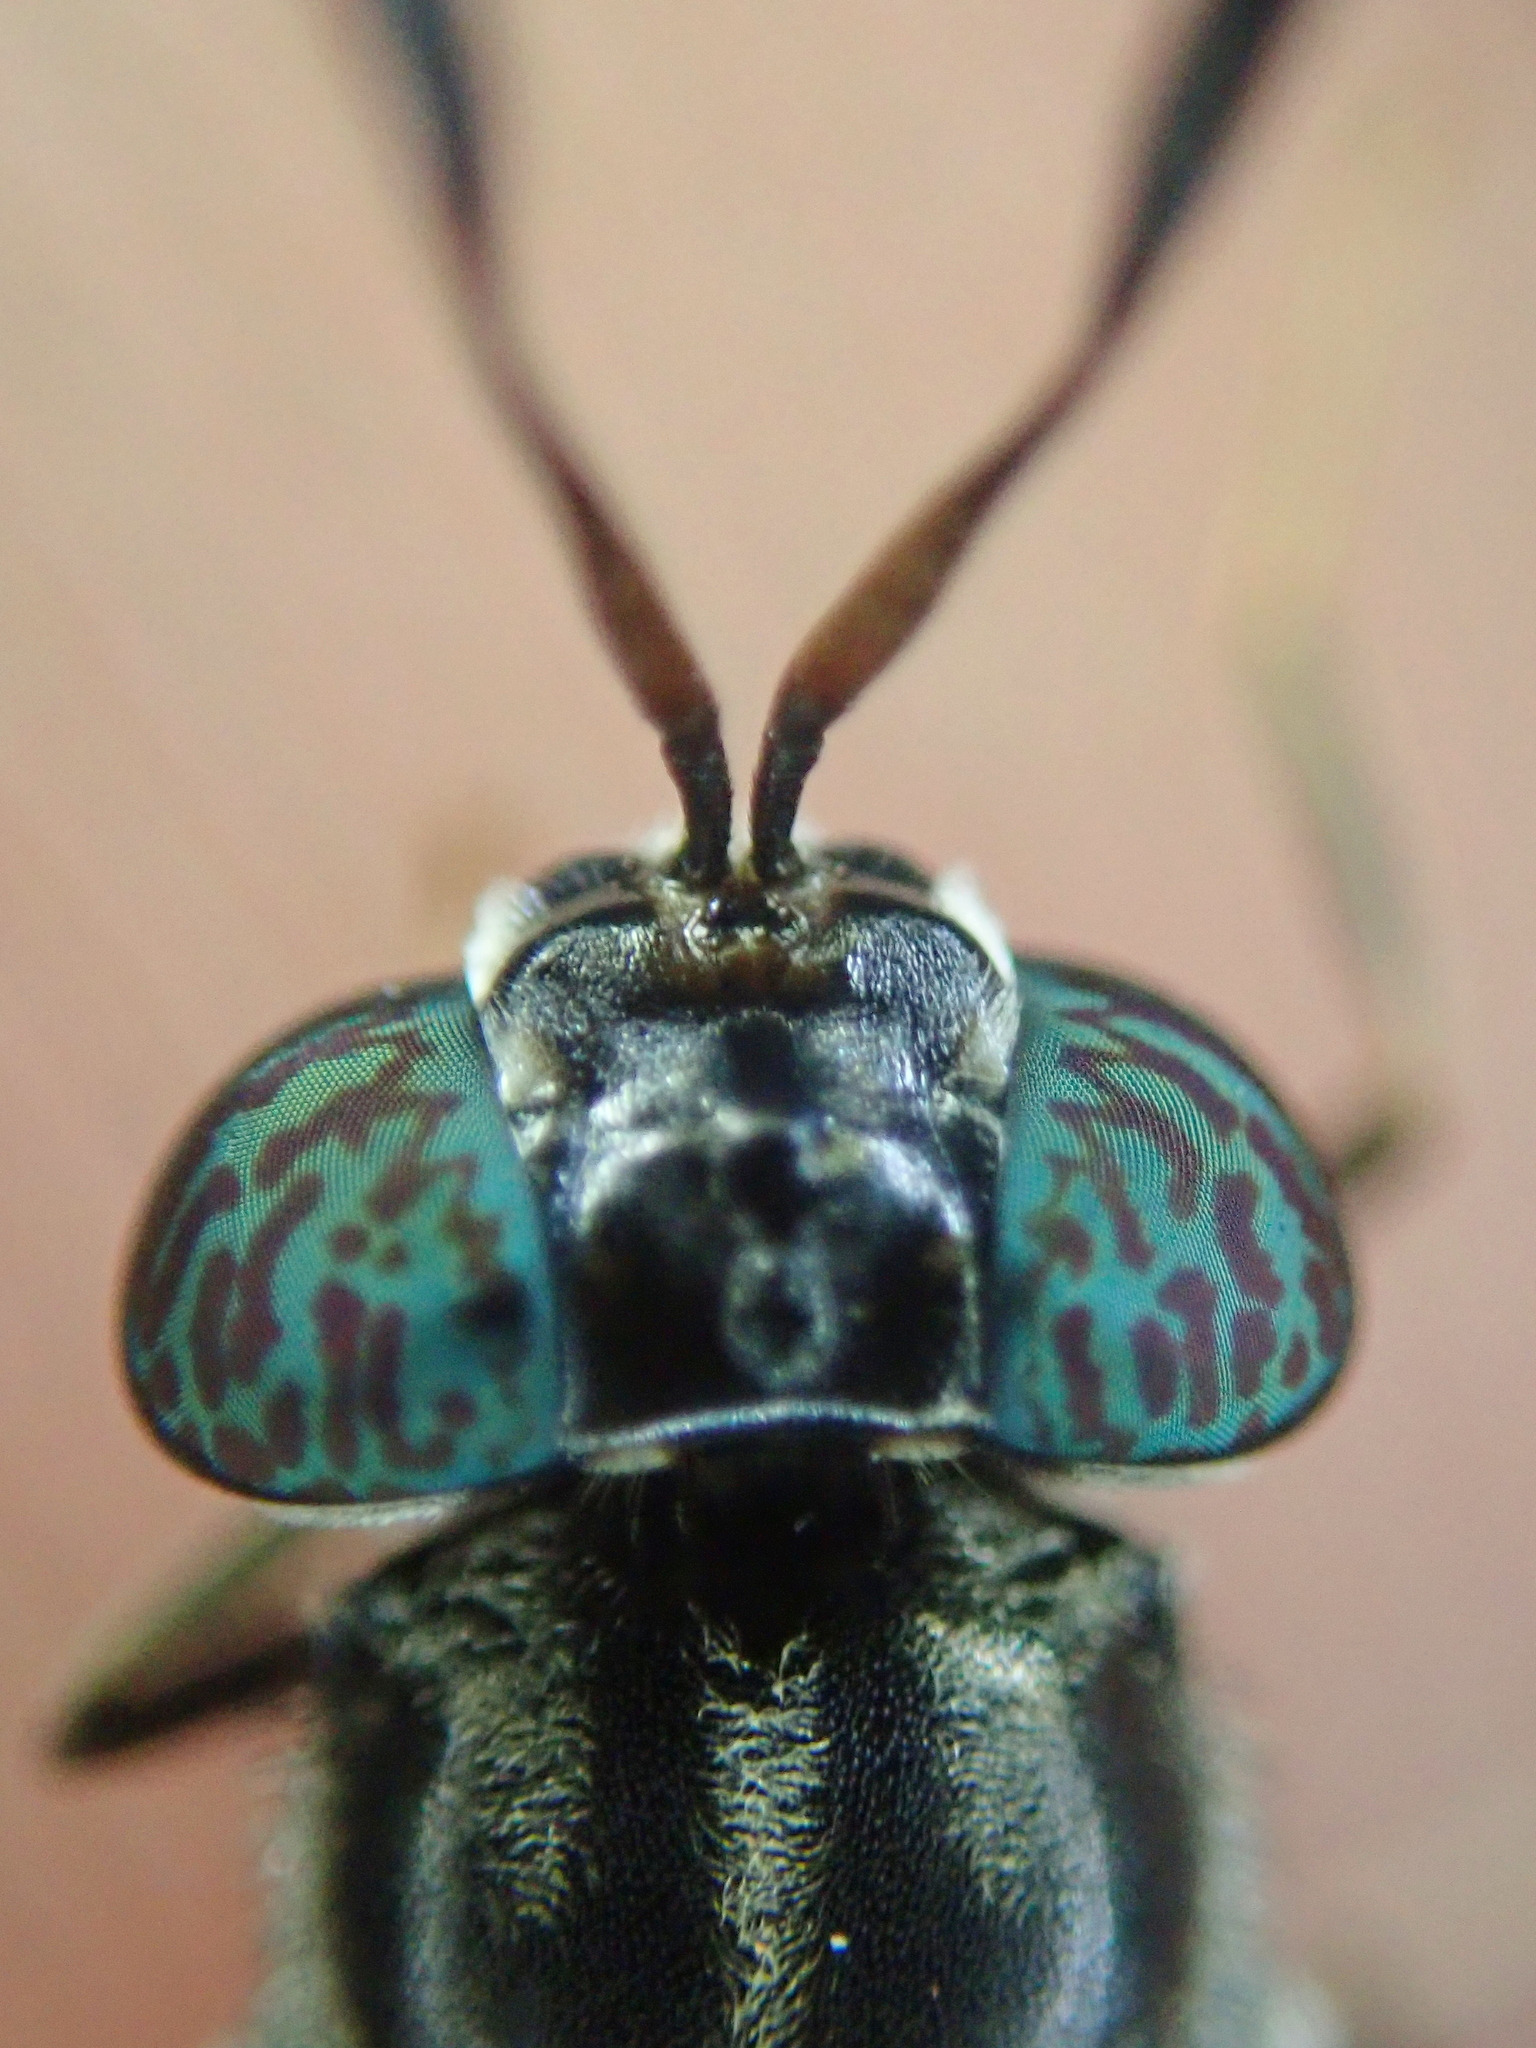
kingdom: Animalia
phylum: Arthropoda
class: Insecta
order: Diptera
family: Stratiomyidae
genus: Hermetia
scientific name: Hermetia illucens
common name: Black soldier fly
